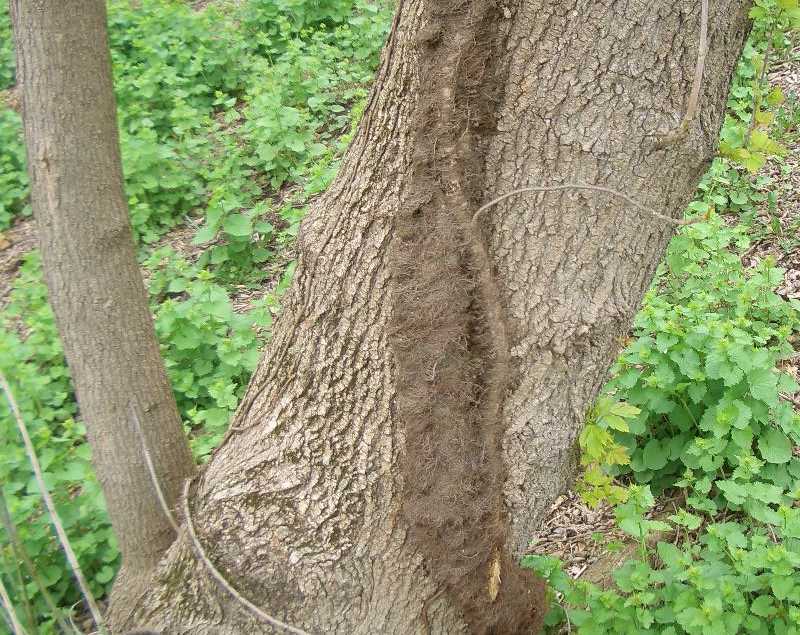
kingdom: Plantae
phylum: Tracheophyta
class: Magnoliopsida
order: Sapindales
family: Anacardiaceae
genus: Toxicodendron
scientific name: Toxicodendron radicans
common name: Poison ivy
